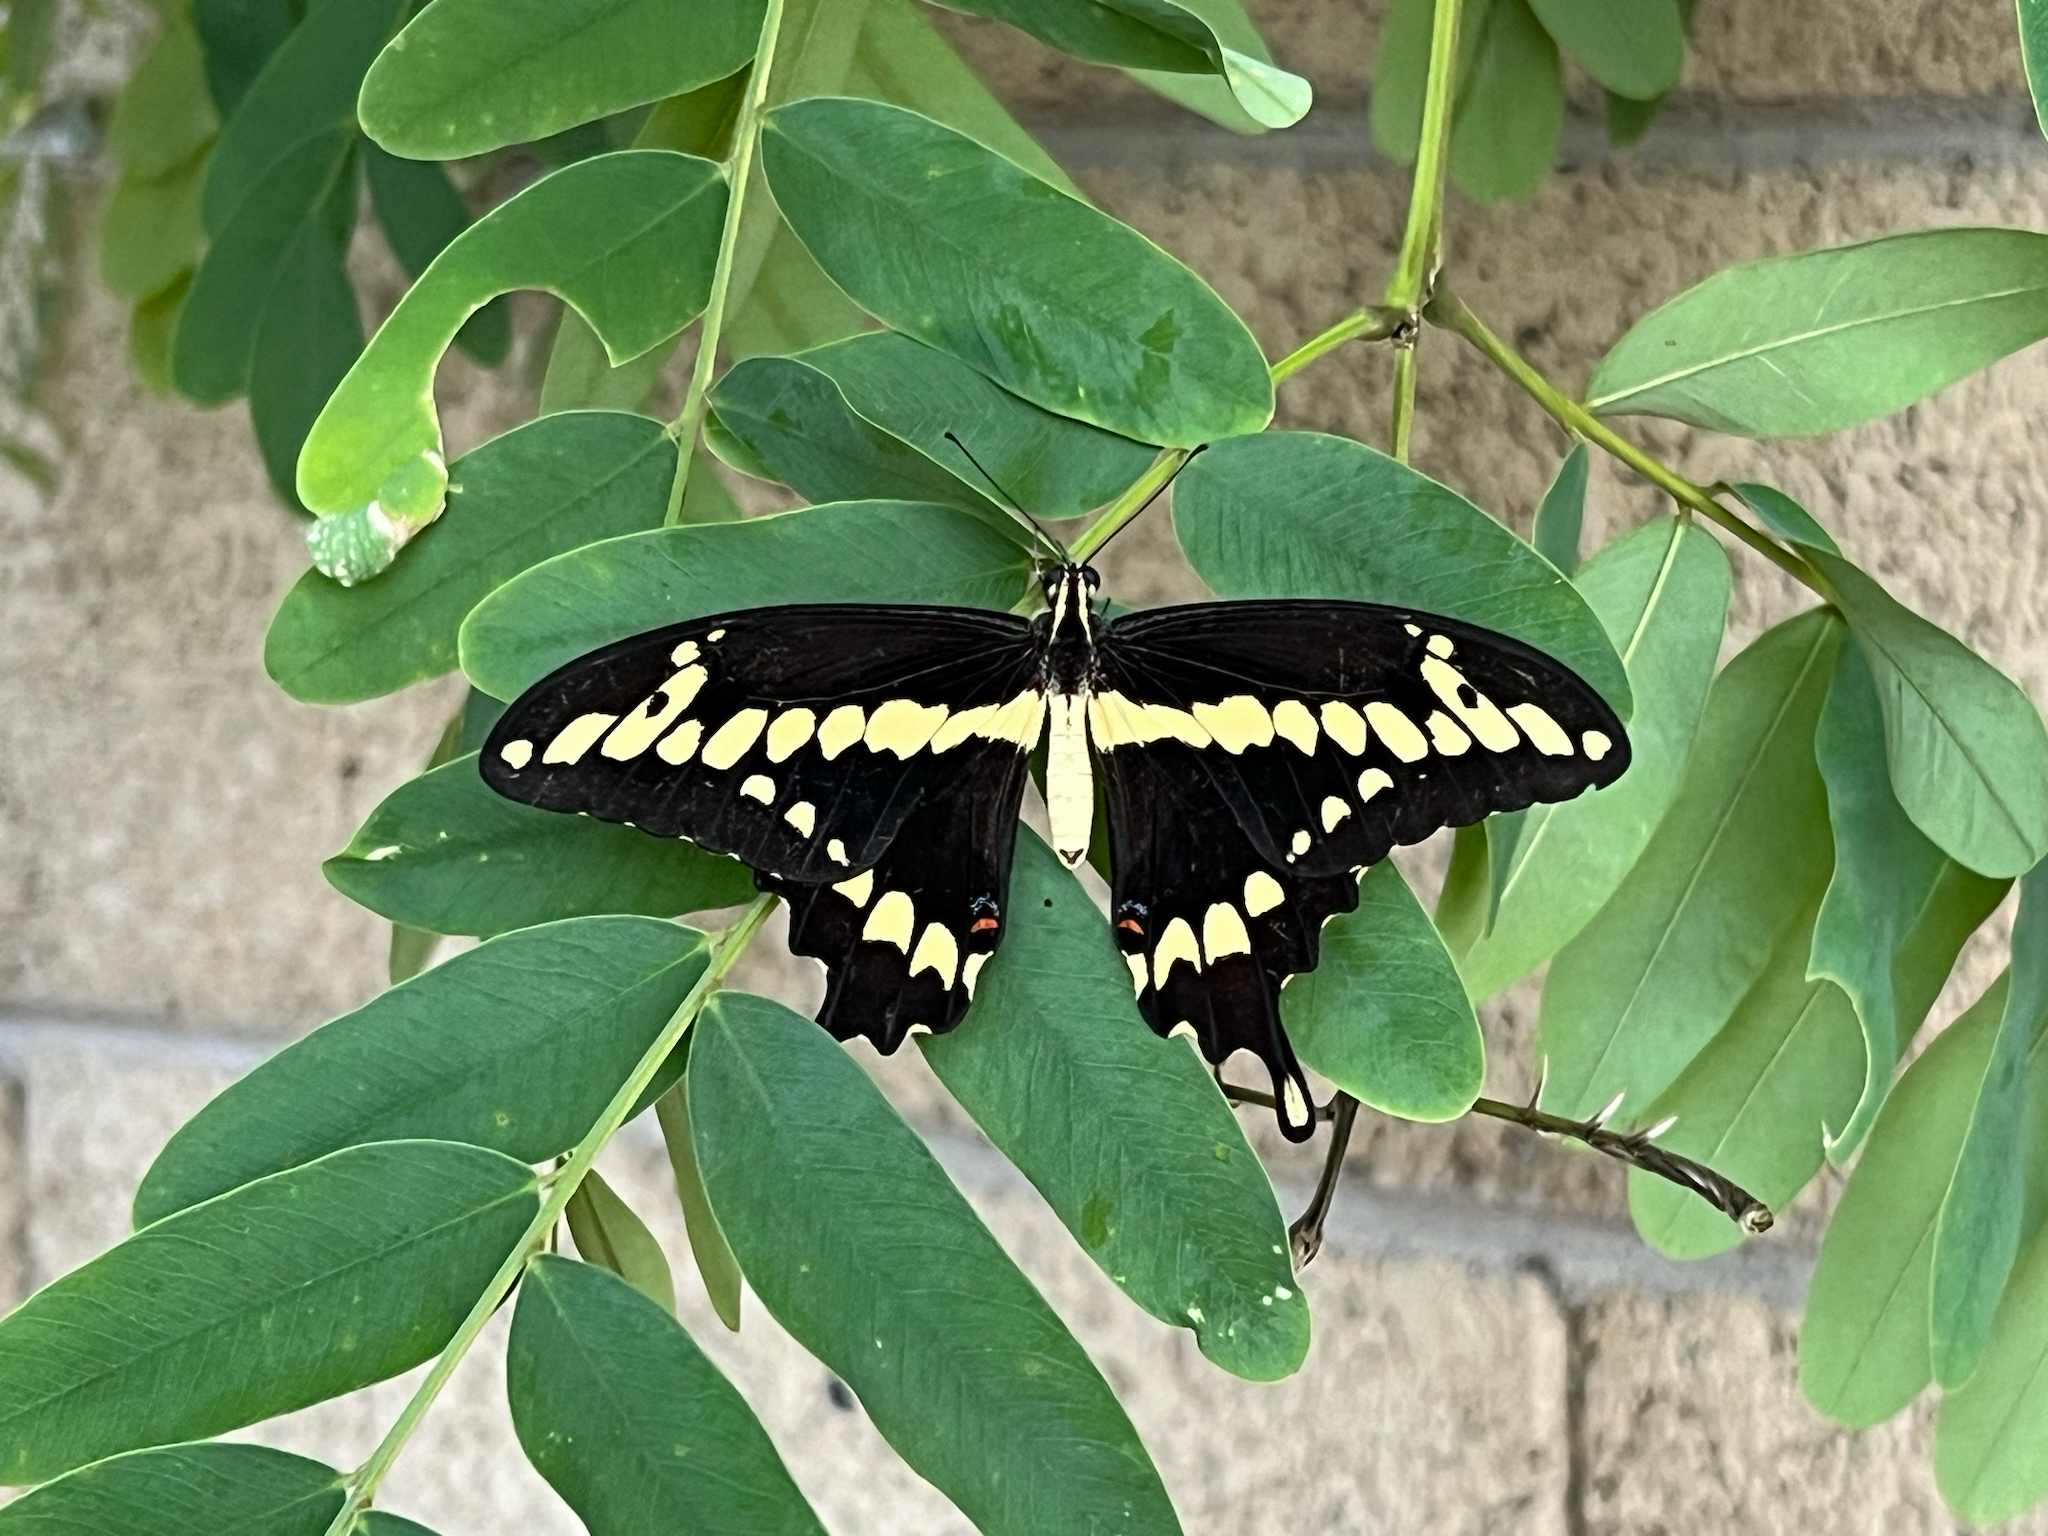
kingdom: Animalia
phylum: Arthropoda
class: Insecta
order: Lepidoptera
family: Papilionidae
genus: Papilio
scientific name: Papilio rumiko
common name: Western giant swallowtail
